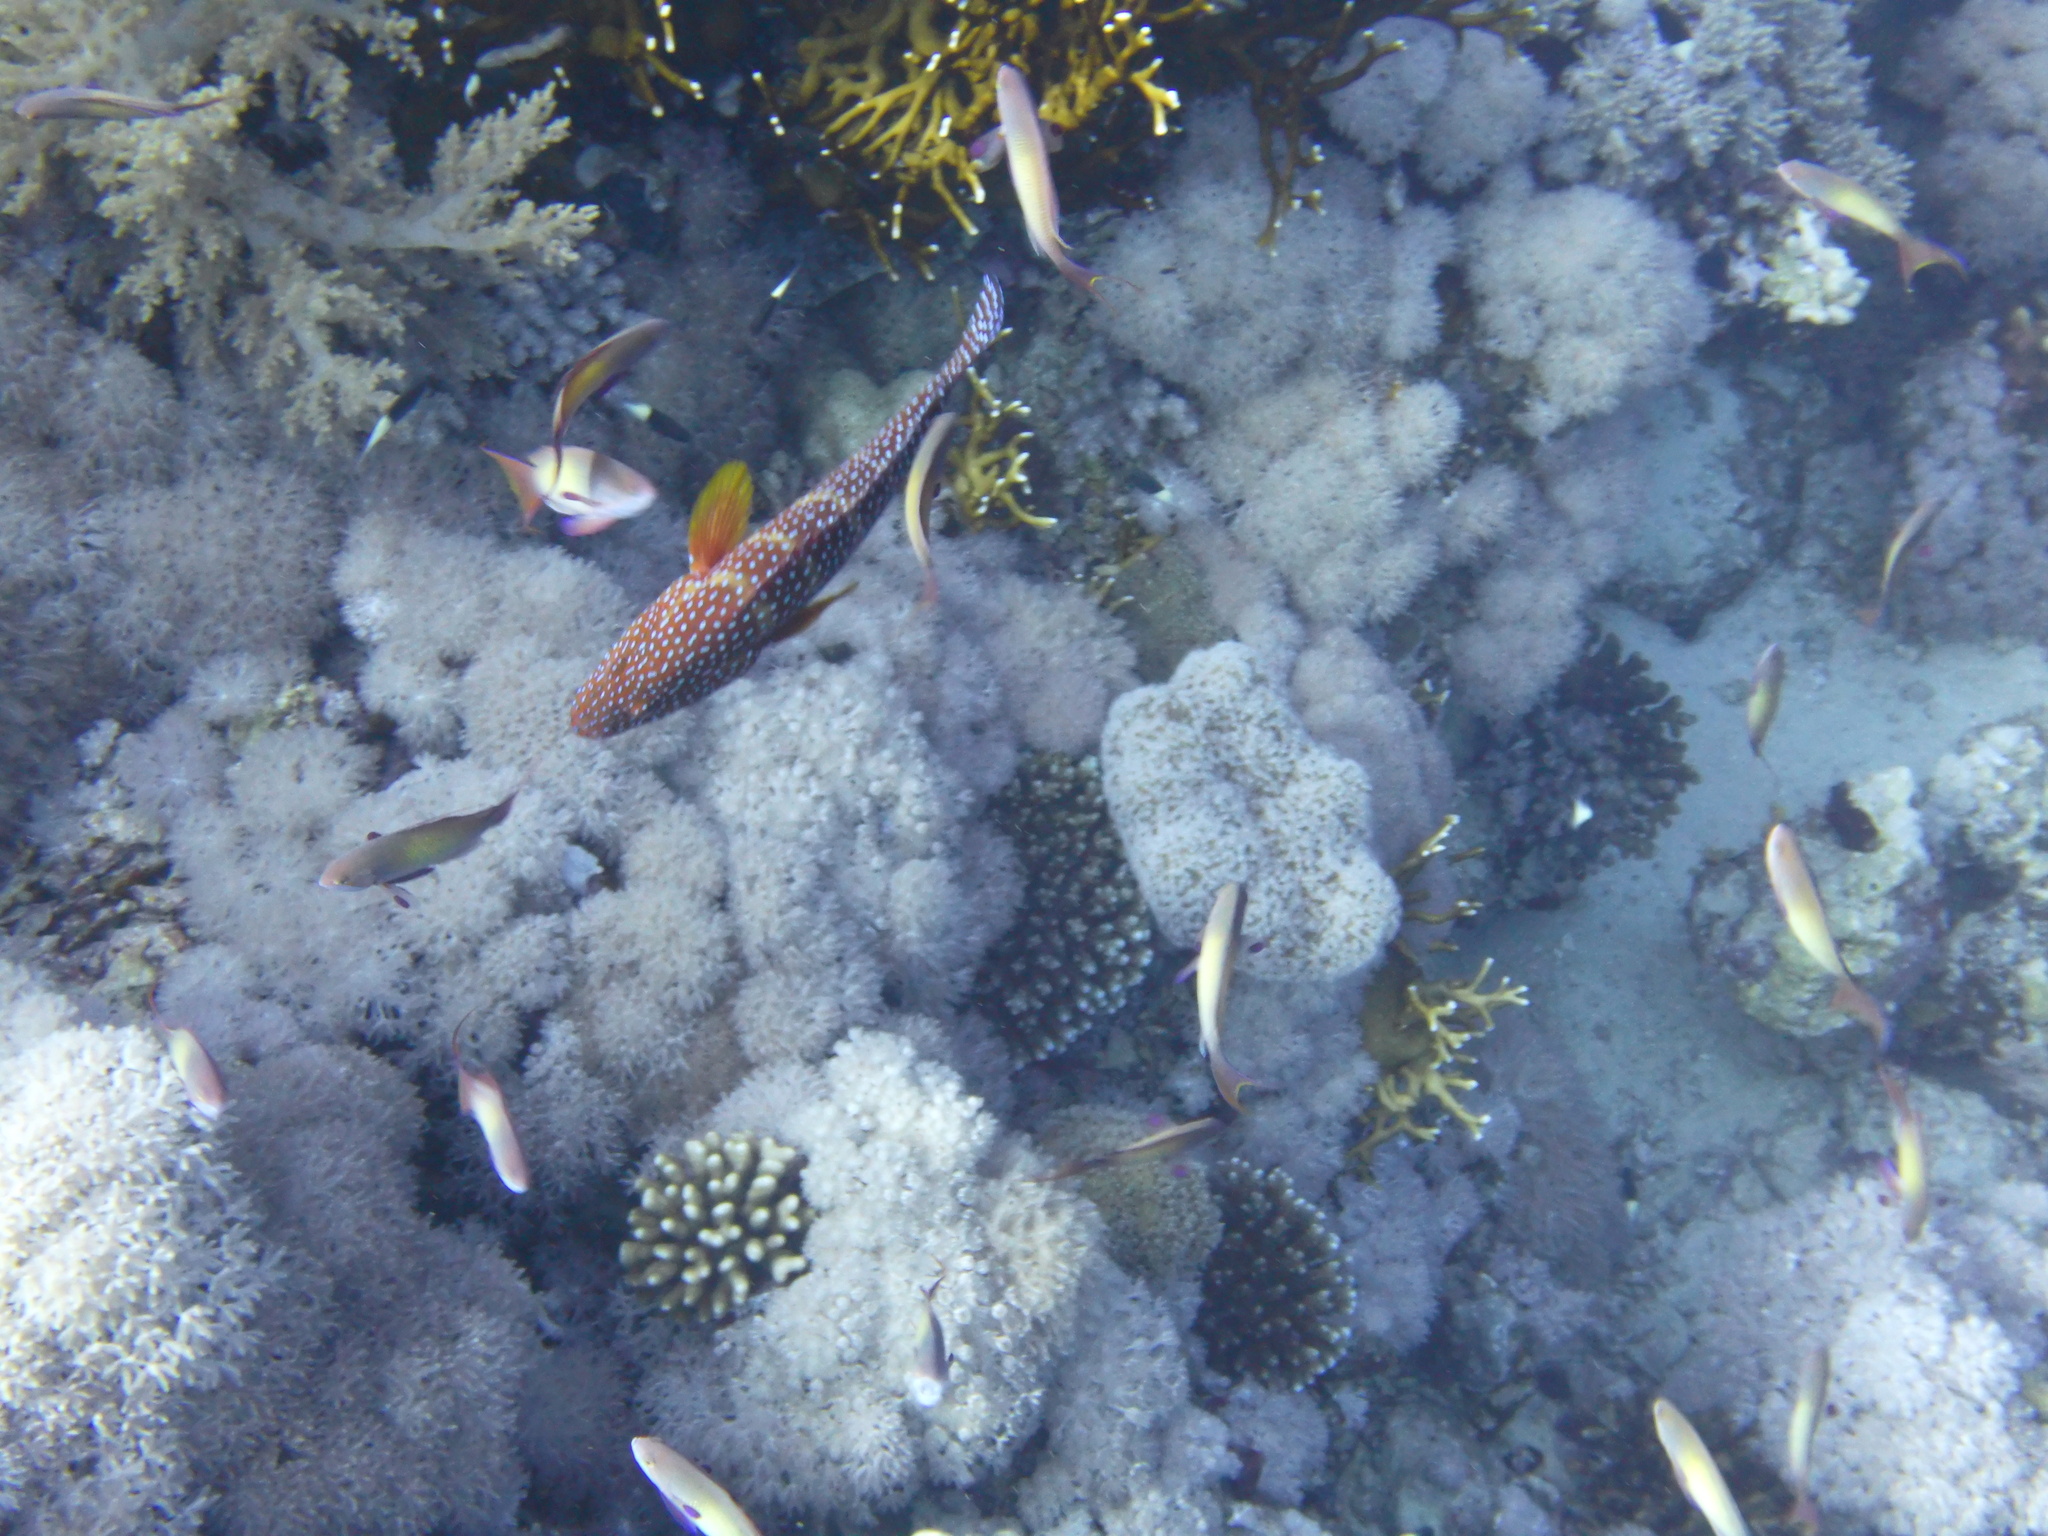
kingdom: Animalia
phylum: Chordata
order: Perciformes
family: Serranidae
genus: Cephalopholis
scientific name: Cephalopholis miniata
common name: Coral hind
